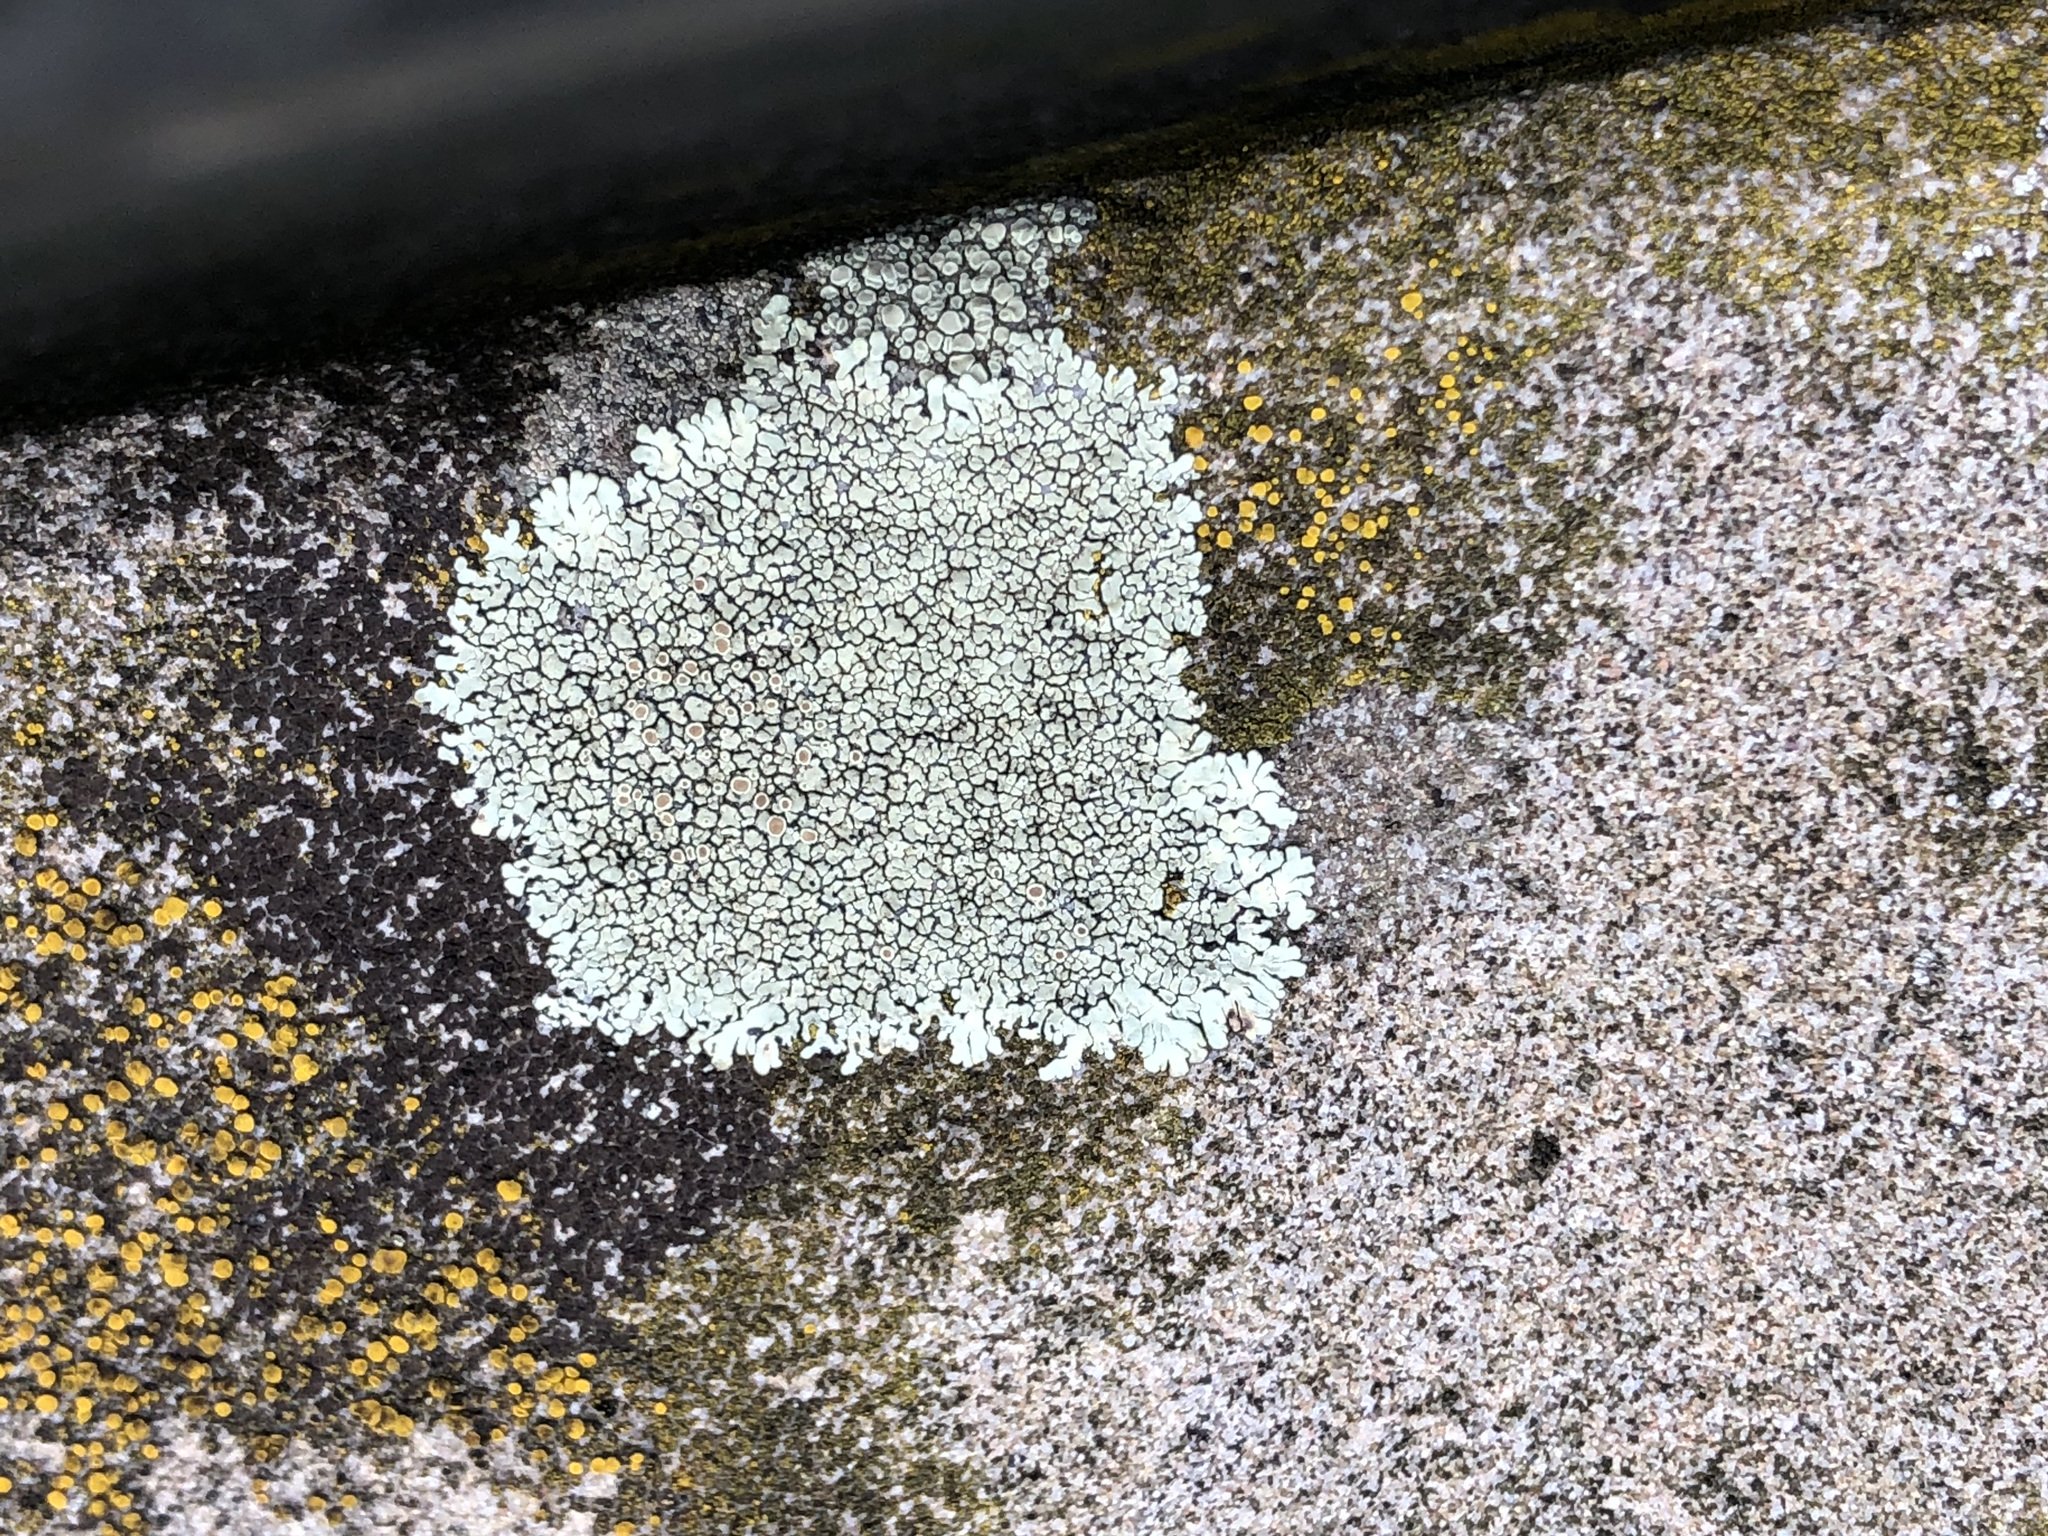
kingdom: Fungi
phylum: Ascomycota
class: Lecanoromycetes
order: Lecanorales
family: Lecanoraceae
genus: Protoparmeliopsis
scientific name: Protoparmeliopsis muralis
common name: Stonewall rim lichen
